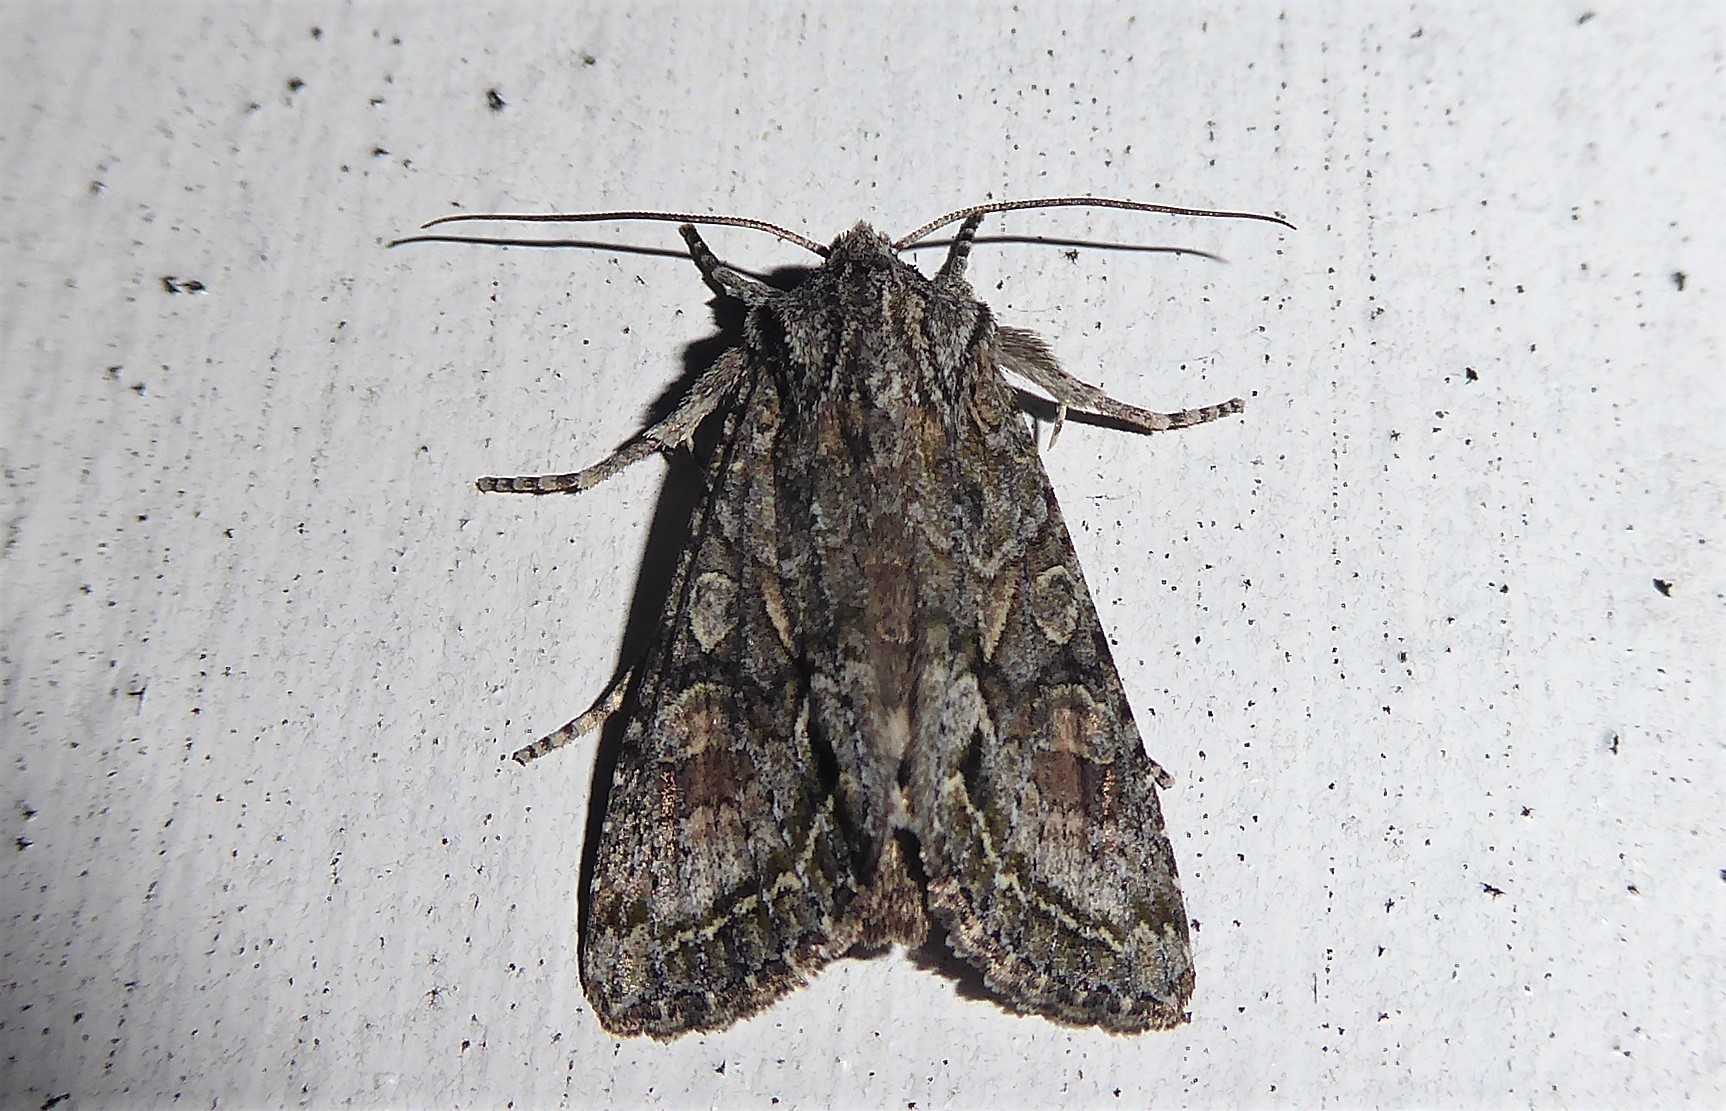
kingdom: Animalia
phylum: Arthropoda
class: Insecta
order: Lepidoptera
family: Noctuidae
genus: Ichneutica
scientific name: Ichneutica mutans
